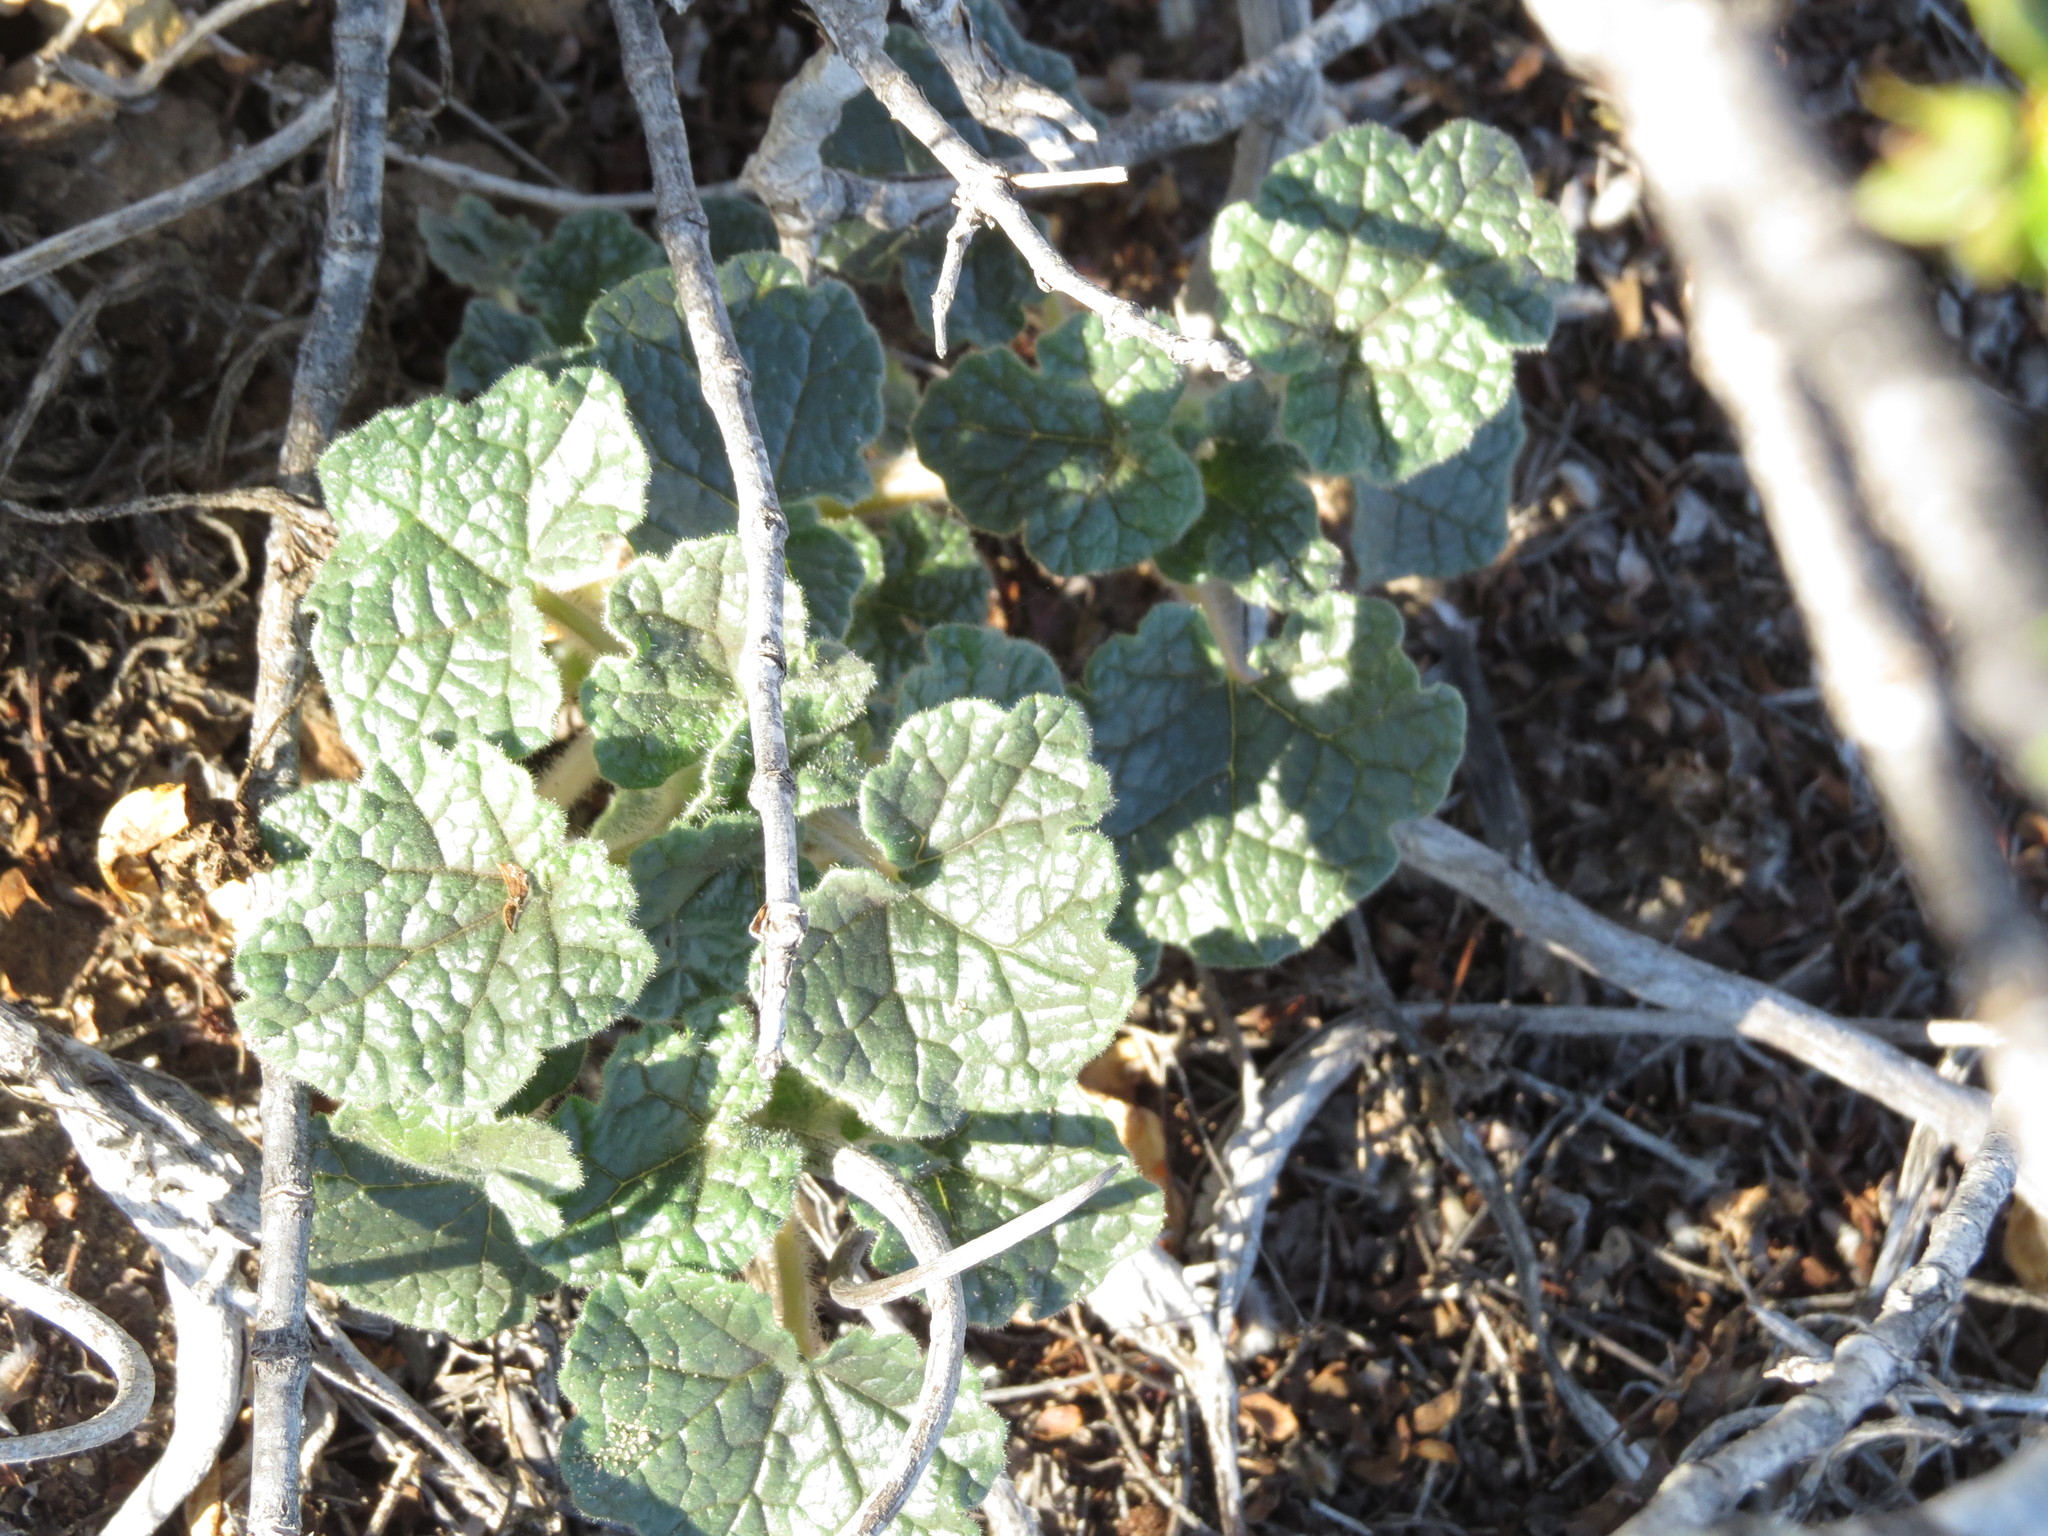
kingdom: Plantae
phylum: Tracheophyta
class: Magnoliopsida
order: Lamiales
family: Martyniaceae
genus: Proboscidea
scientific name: Proboscidea althaeifolia
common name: Desert unicorn-plant
